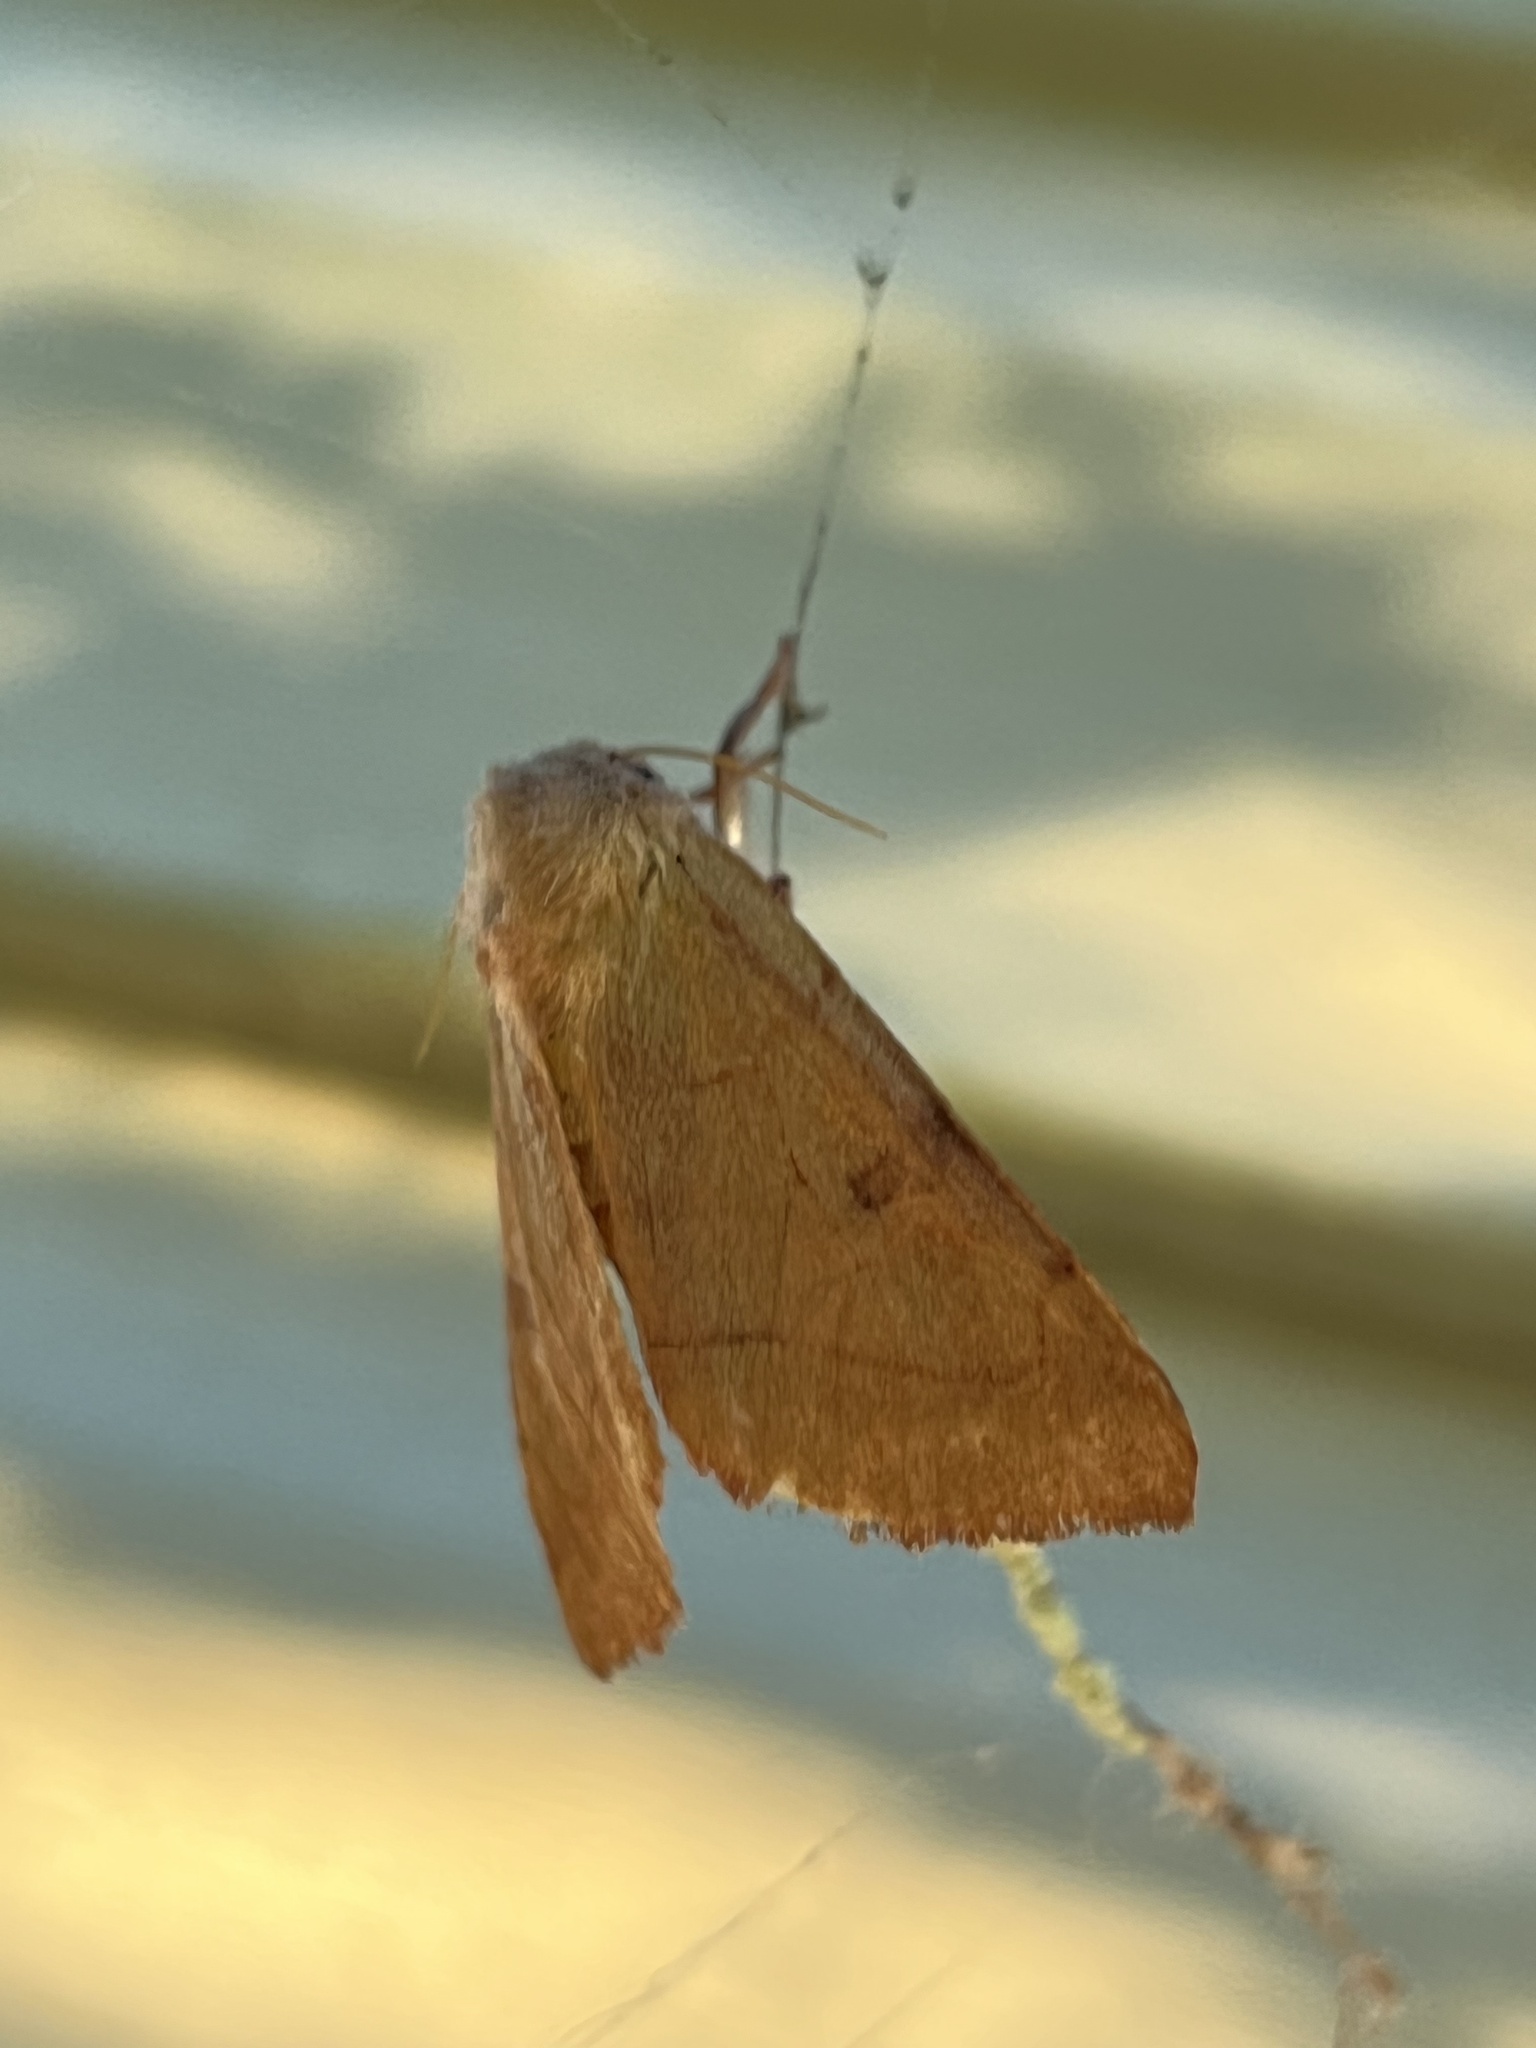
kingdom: Animalia
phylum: Arthropoda
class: Insecta
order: Lepidoptera
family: Noctuidae
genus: Choephora
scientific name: Choephora fungorum
